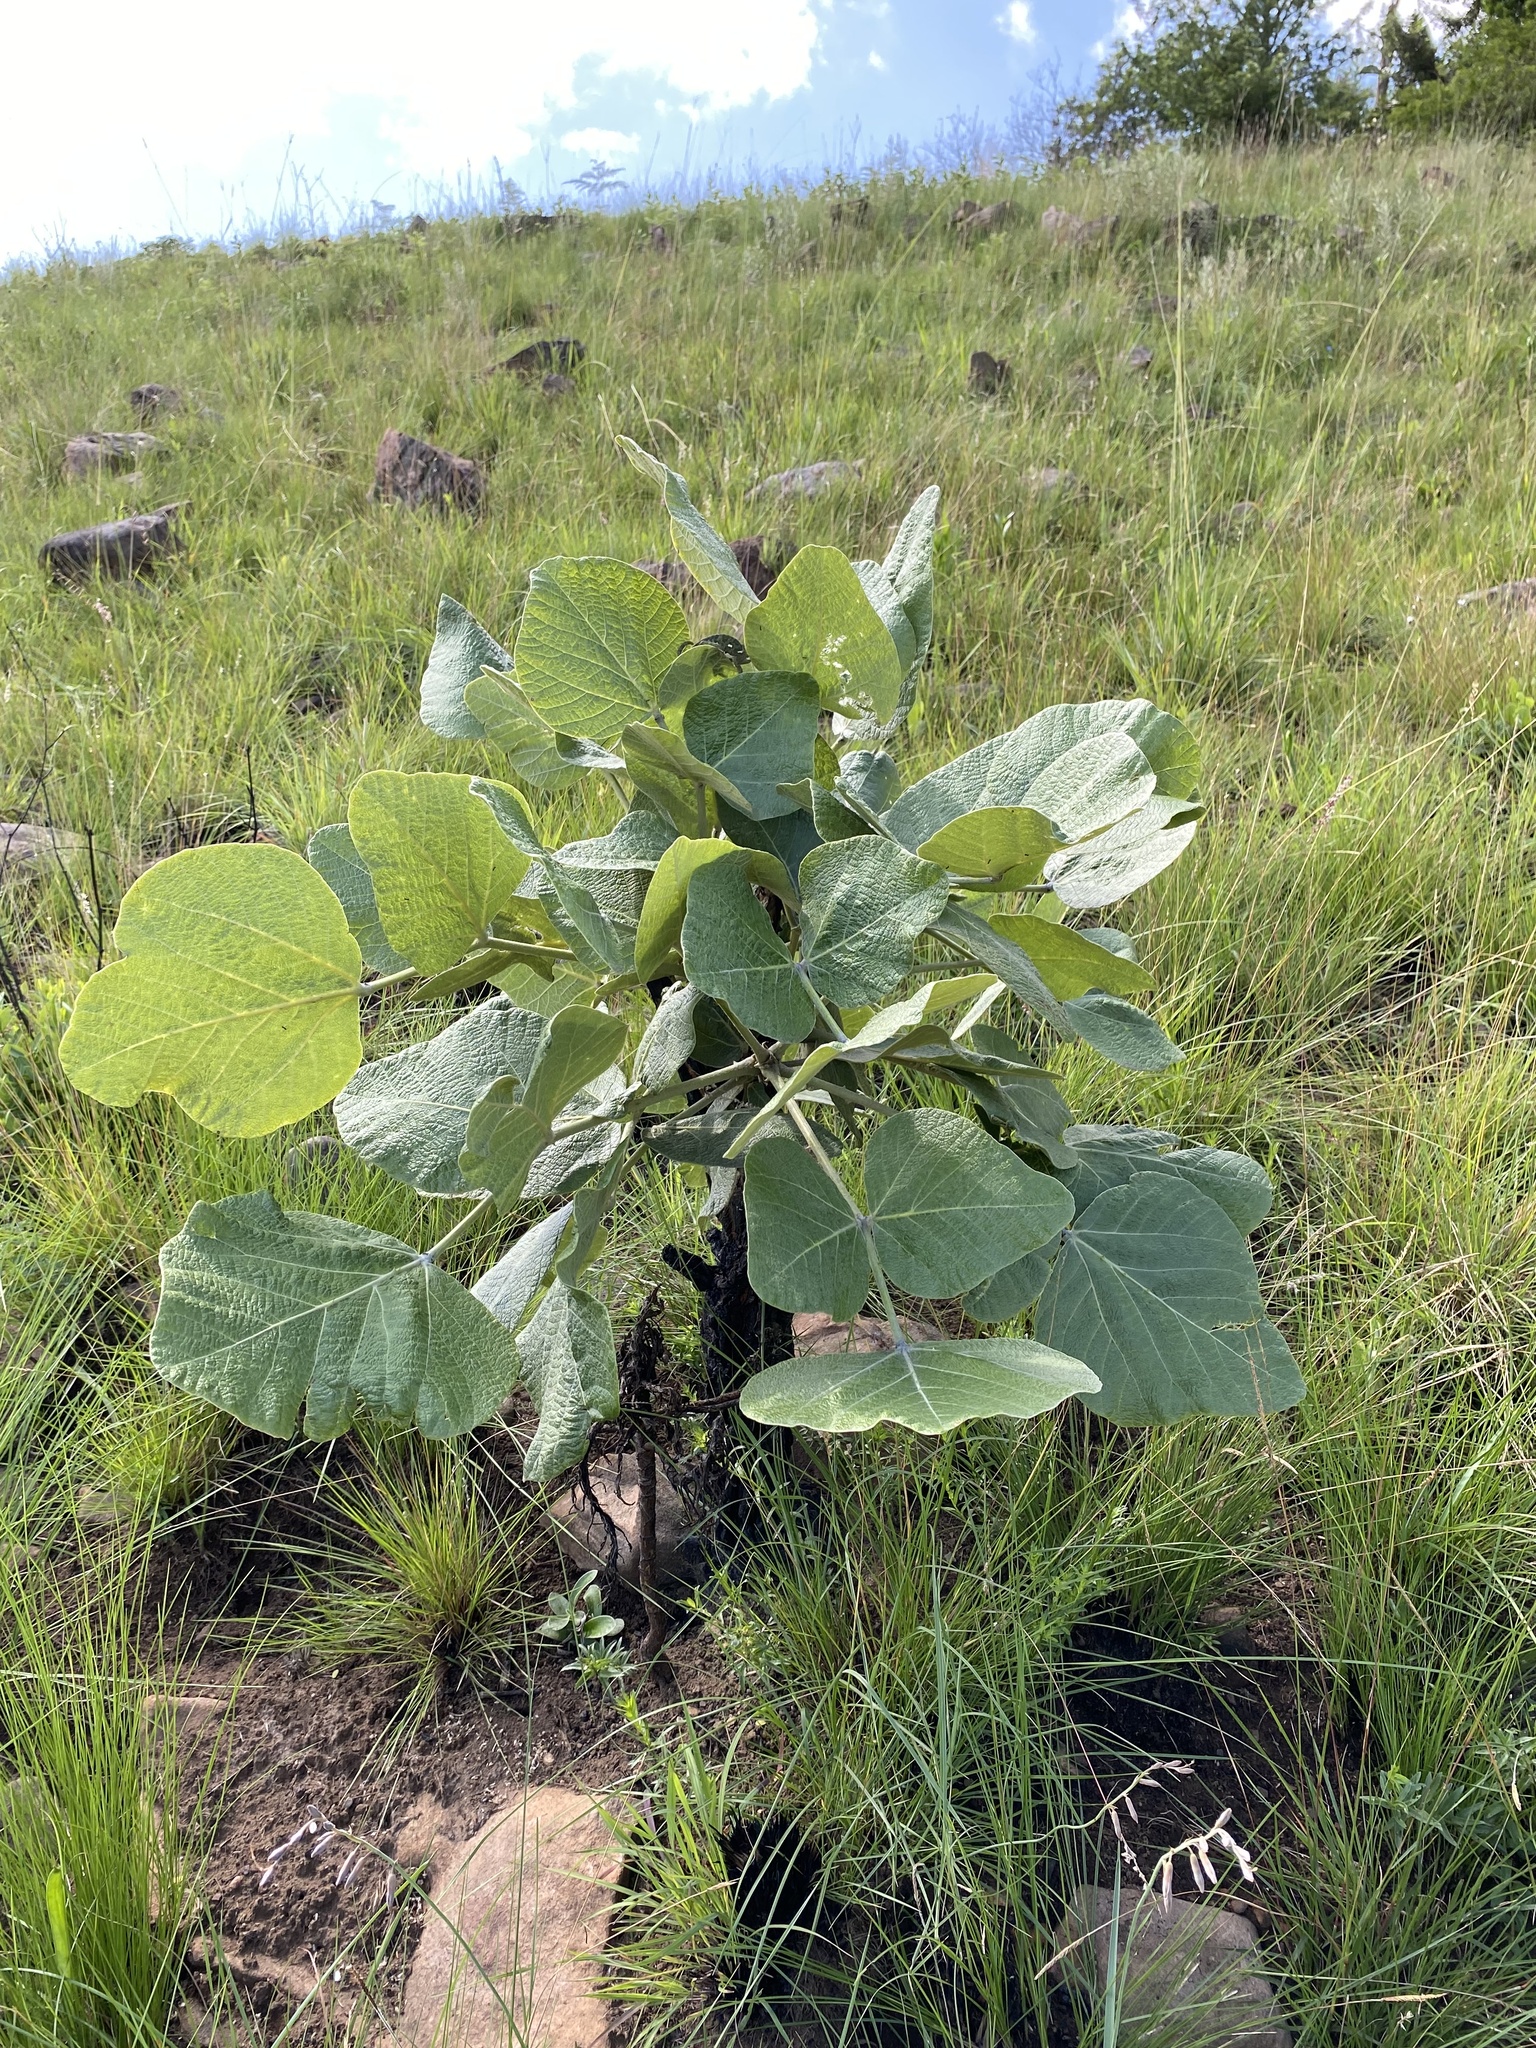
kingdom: Plantae
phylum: Tracheophyta
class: Magnoliopsida
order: Fabales
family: Fabaceae
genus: Erythrina
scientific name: Erythrina latissima
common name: Broad-leaved coral tree
